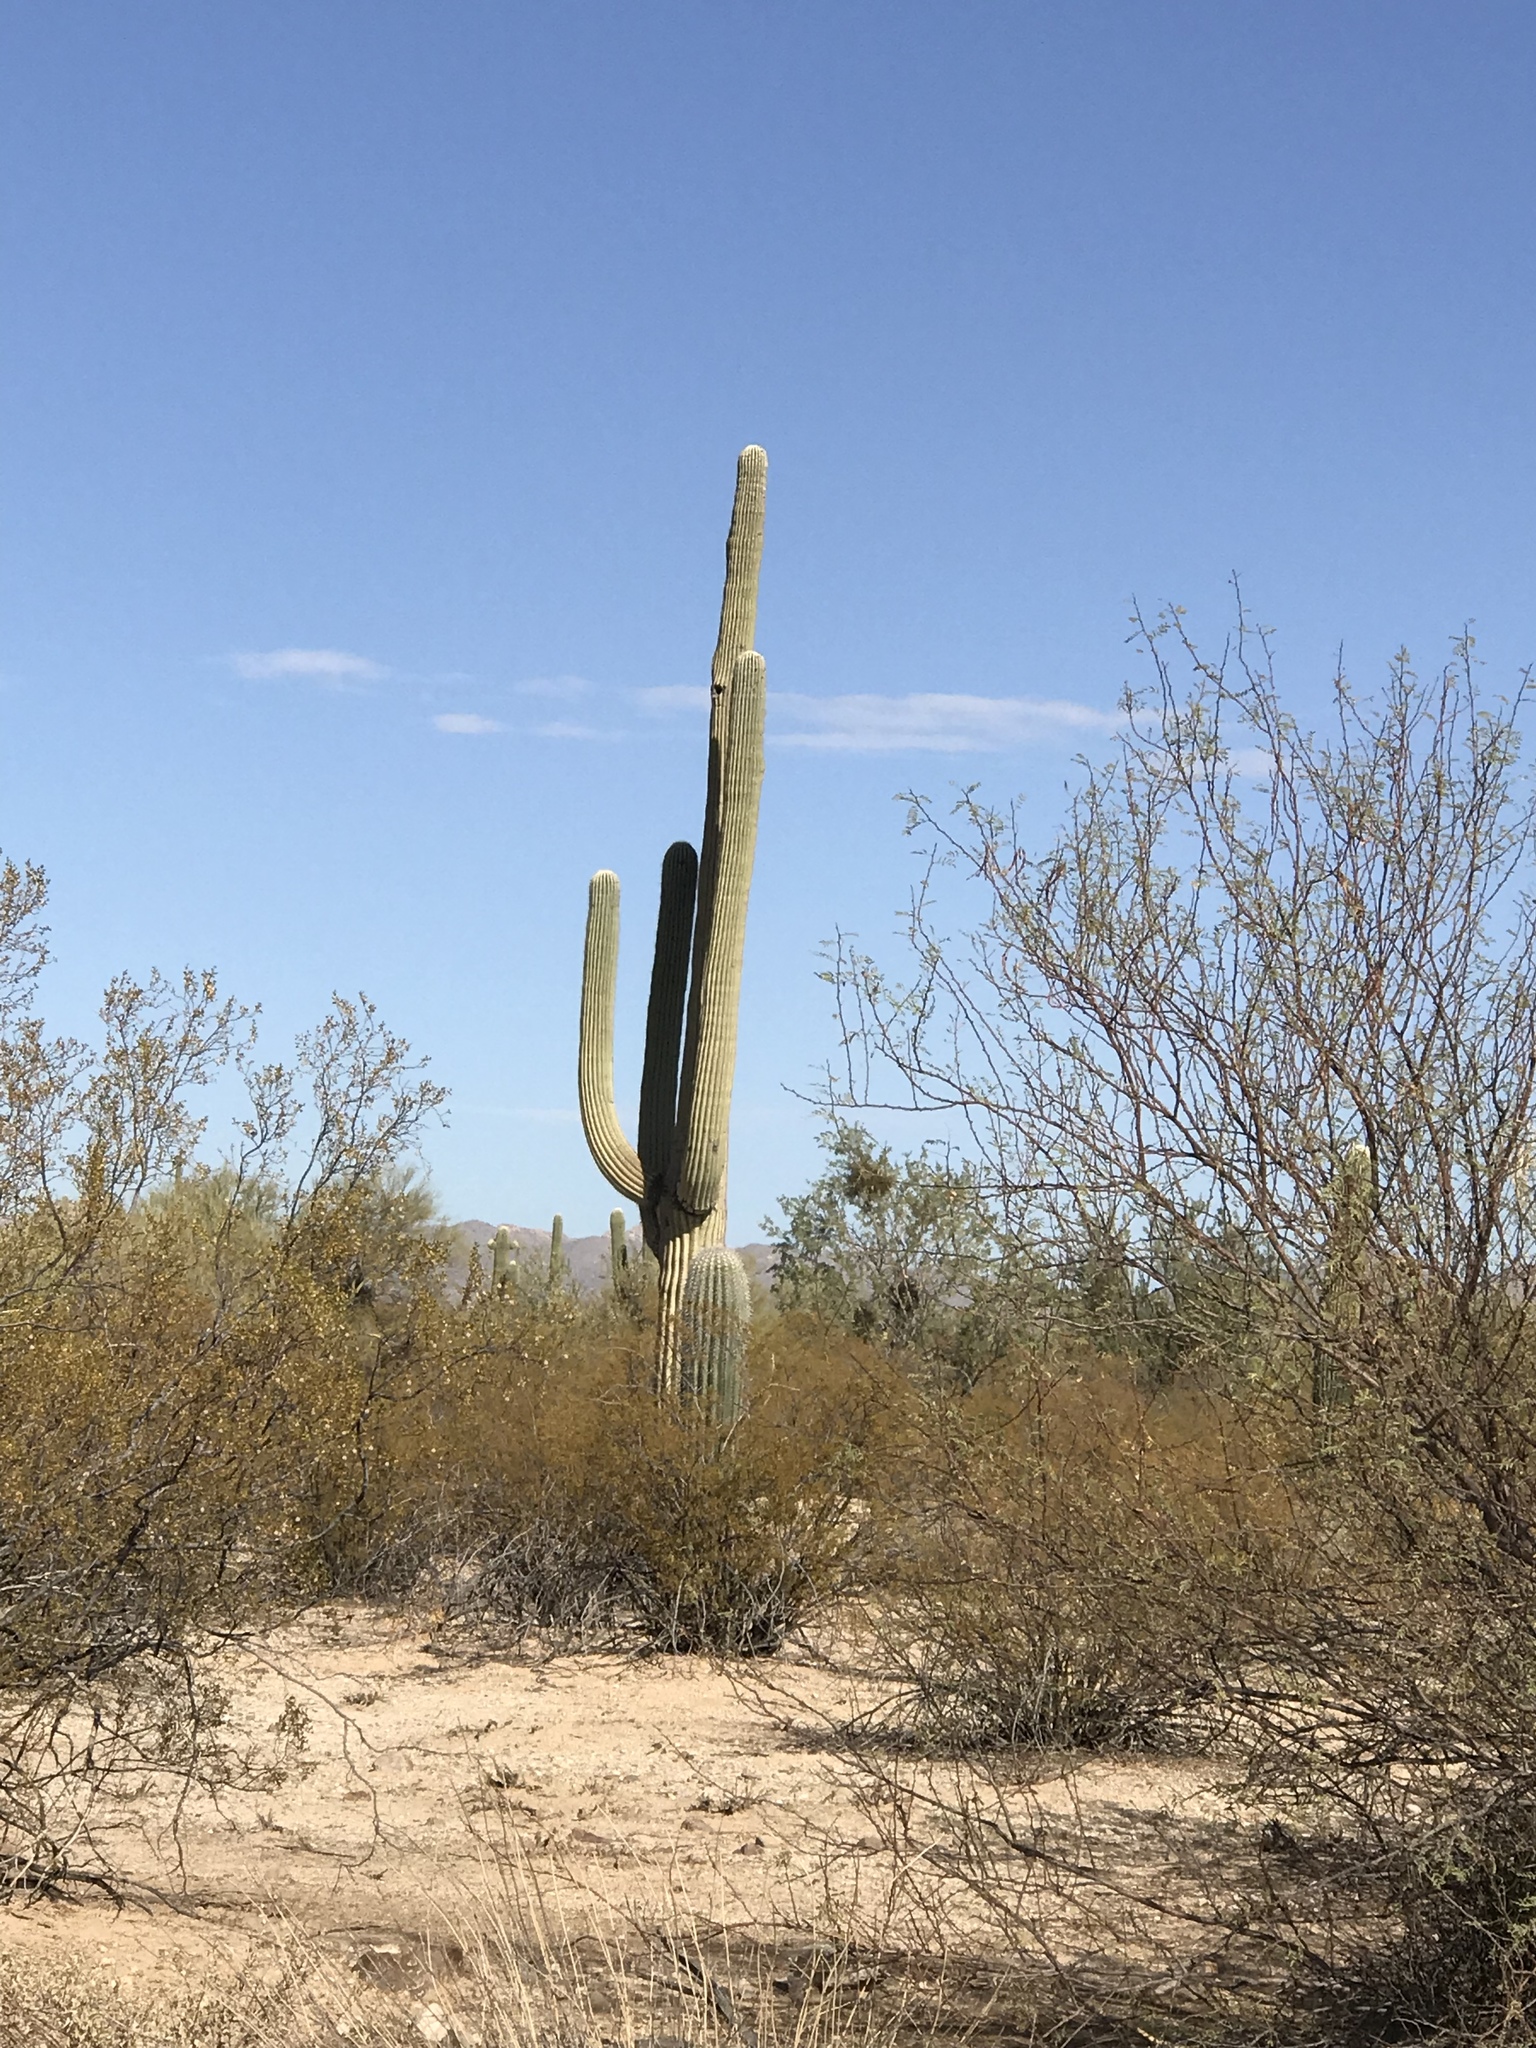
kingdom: Plantae
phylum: Tracheophyta
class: Magnoliopsida
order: Caryophyllales
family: Cactaceae
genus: Carnegiea
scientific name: Carnegiea gigantea
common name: Saguaro
